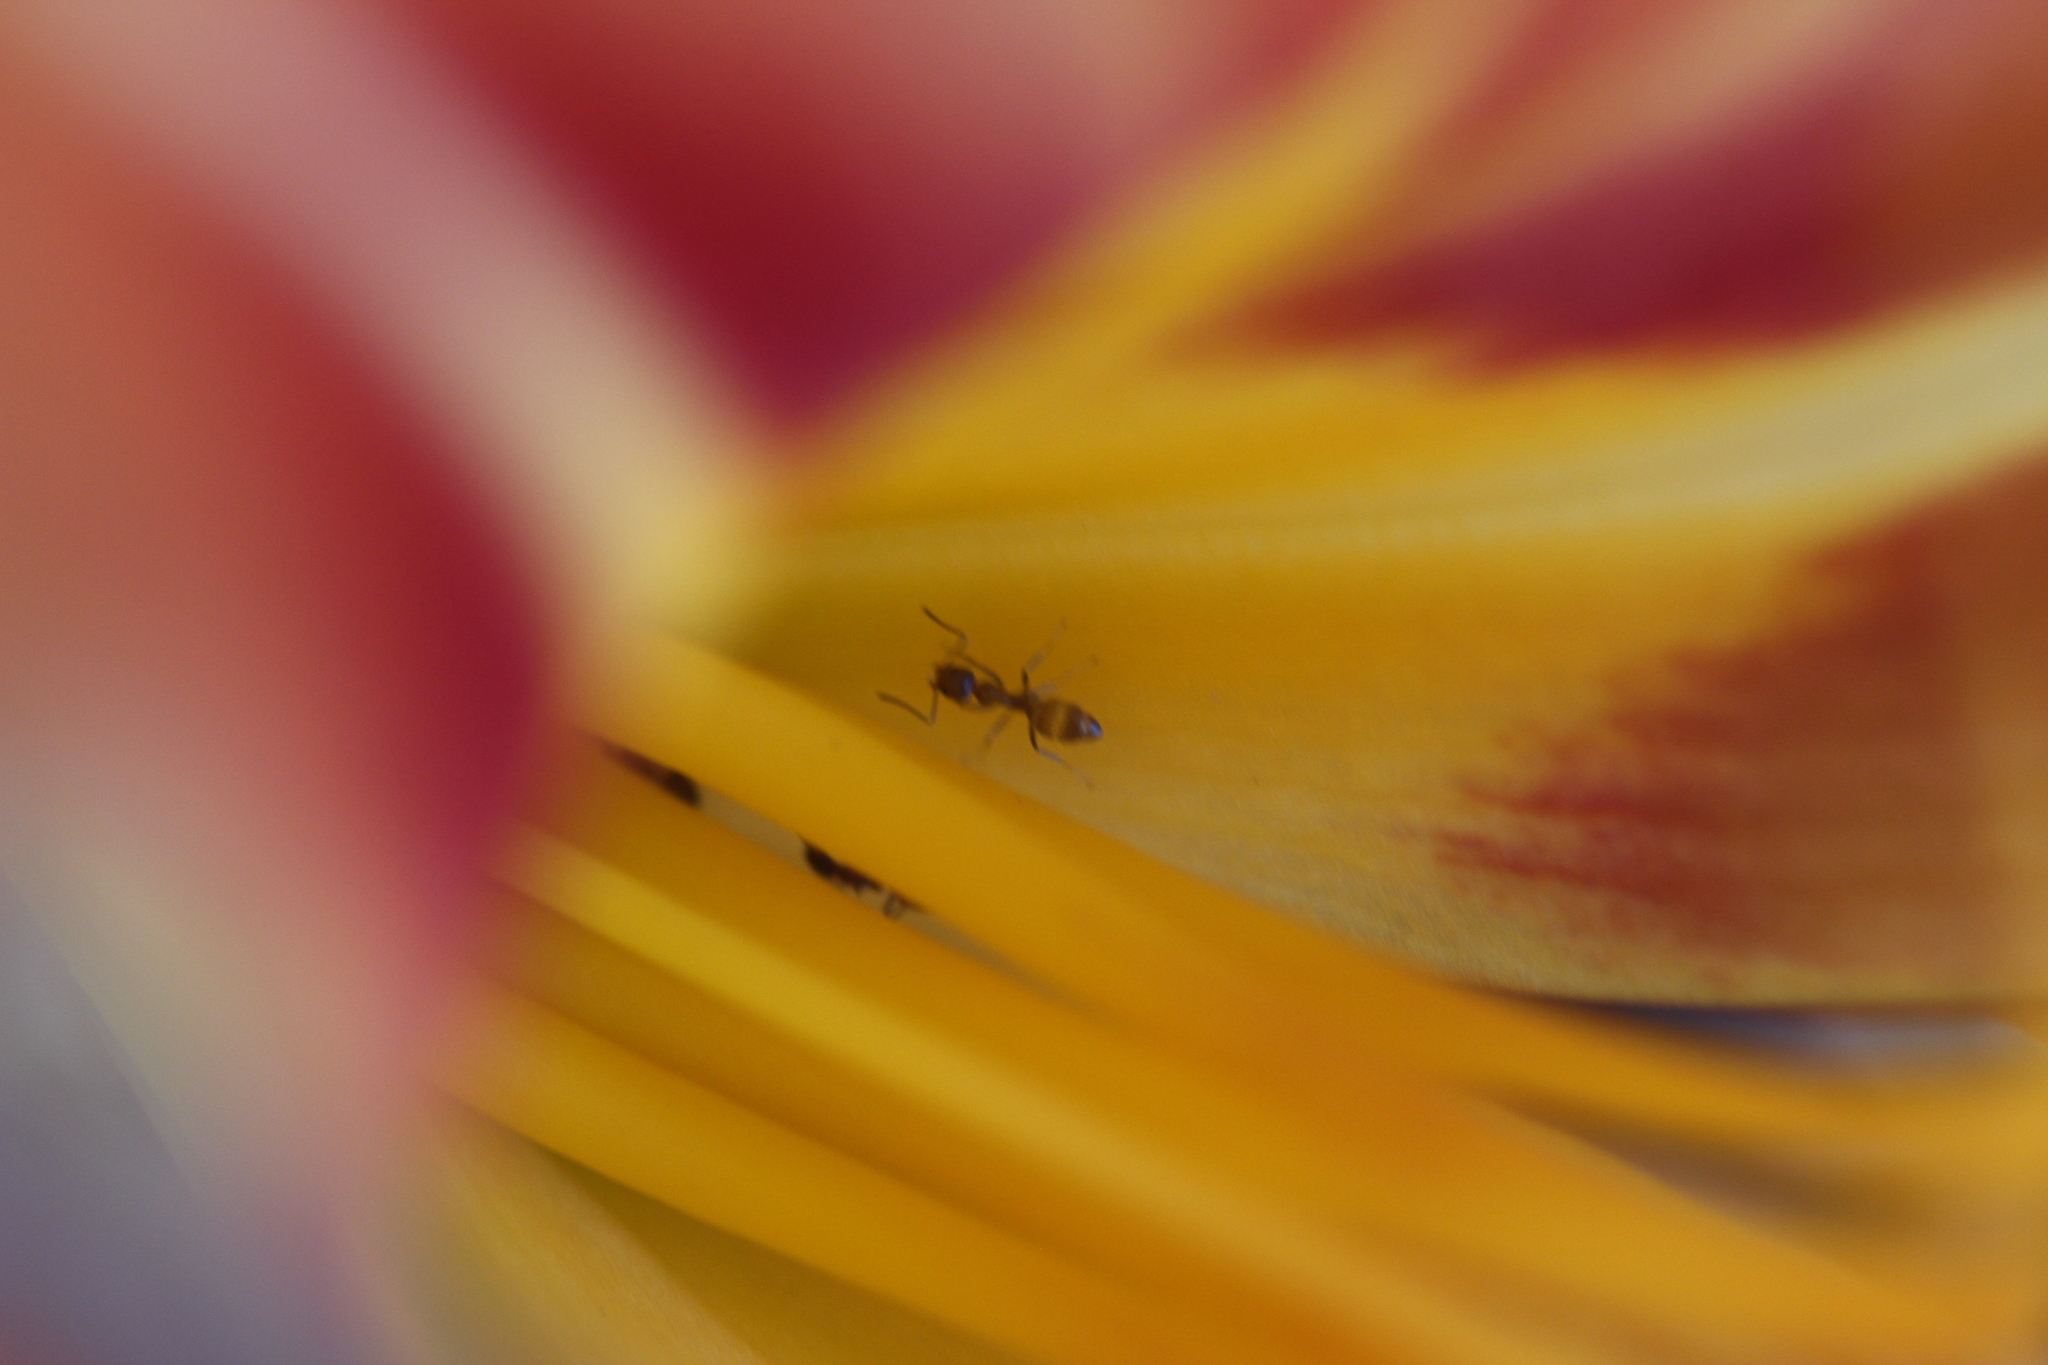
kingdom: Animalia
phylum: Arthropoda
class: Insecta
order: Hymenoptera
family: Formicidae
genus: Linepithema
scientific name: Linepithema humile
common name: Argentine ant
